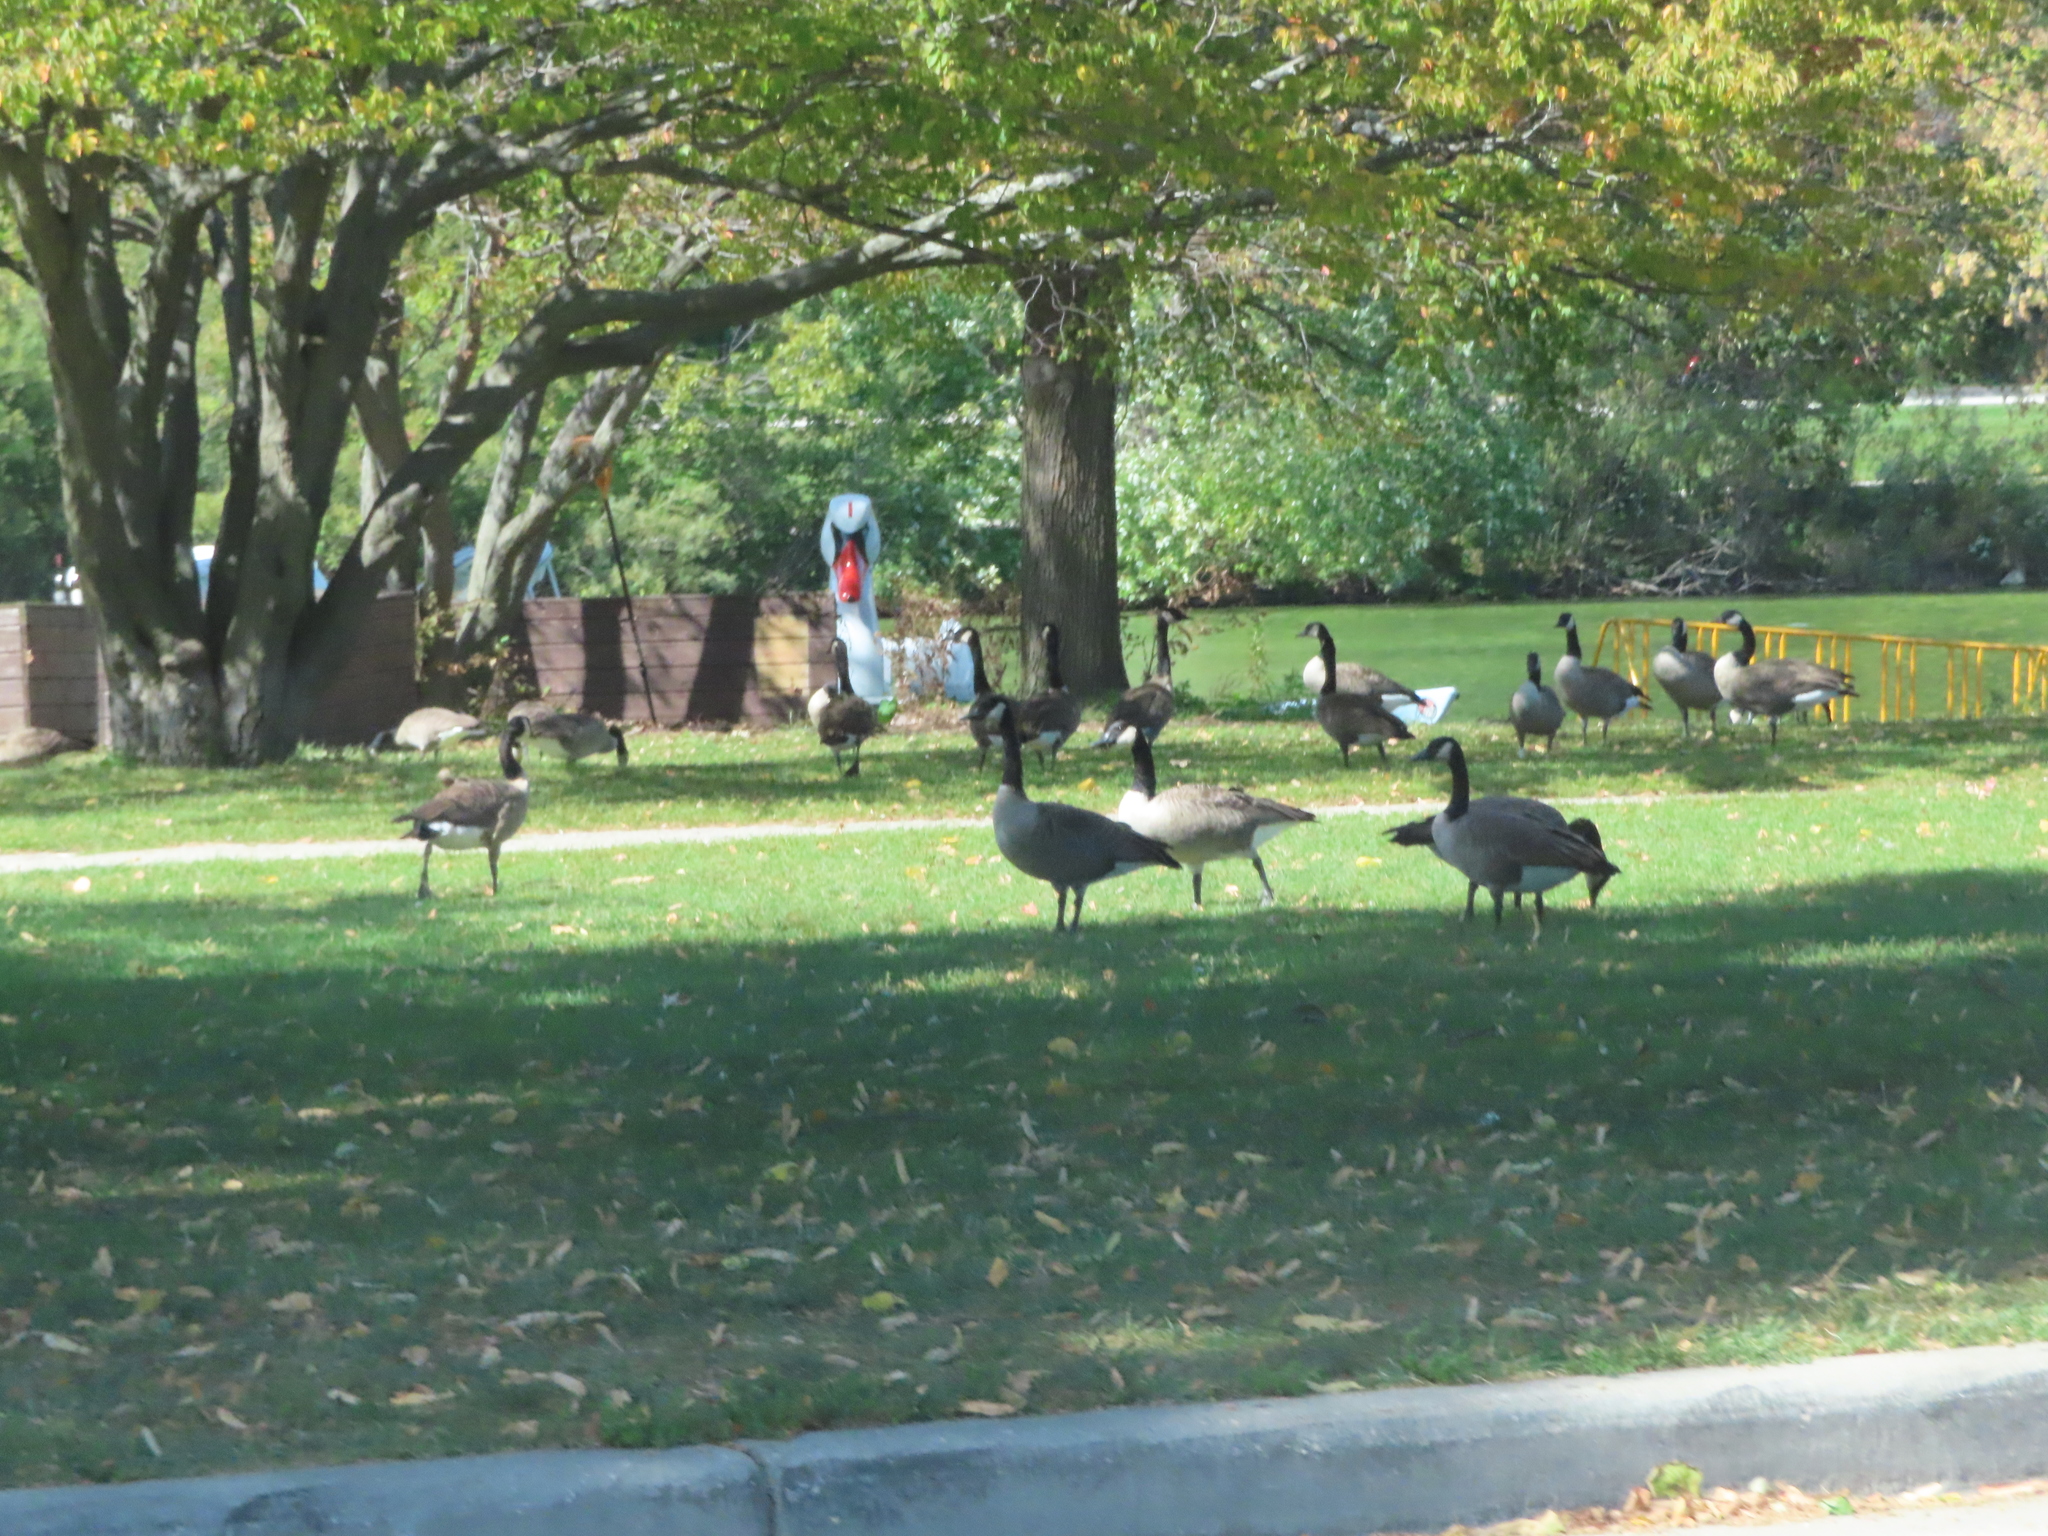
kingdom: Animalia
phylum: Chordata
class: Aves
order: Anseriformes
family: Anatidae
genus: Branta
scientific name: Branta canadensis
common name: Canada goose
